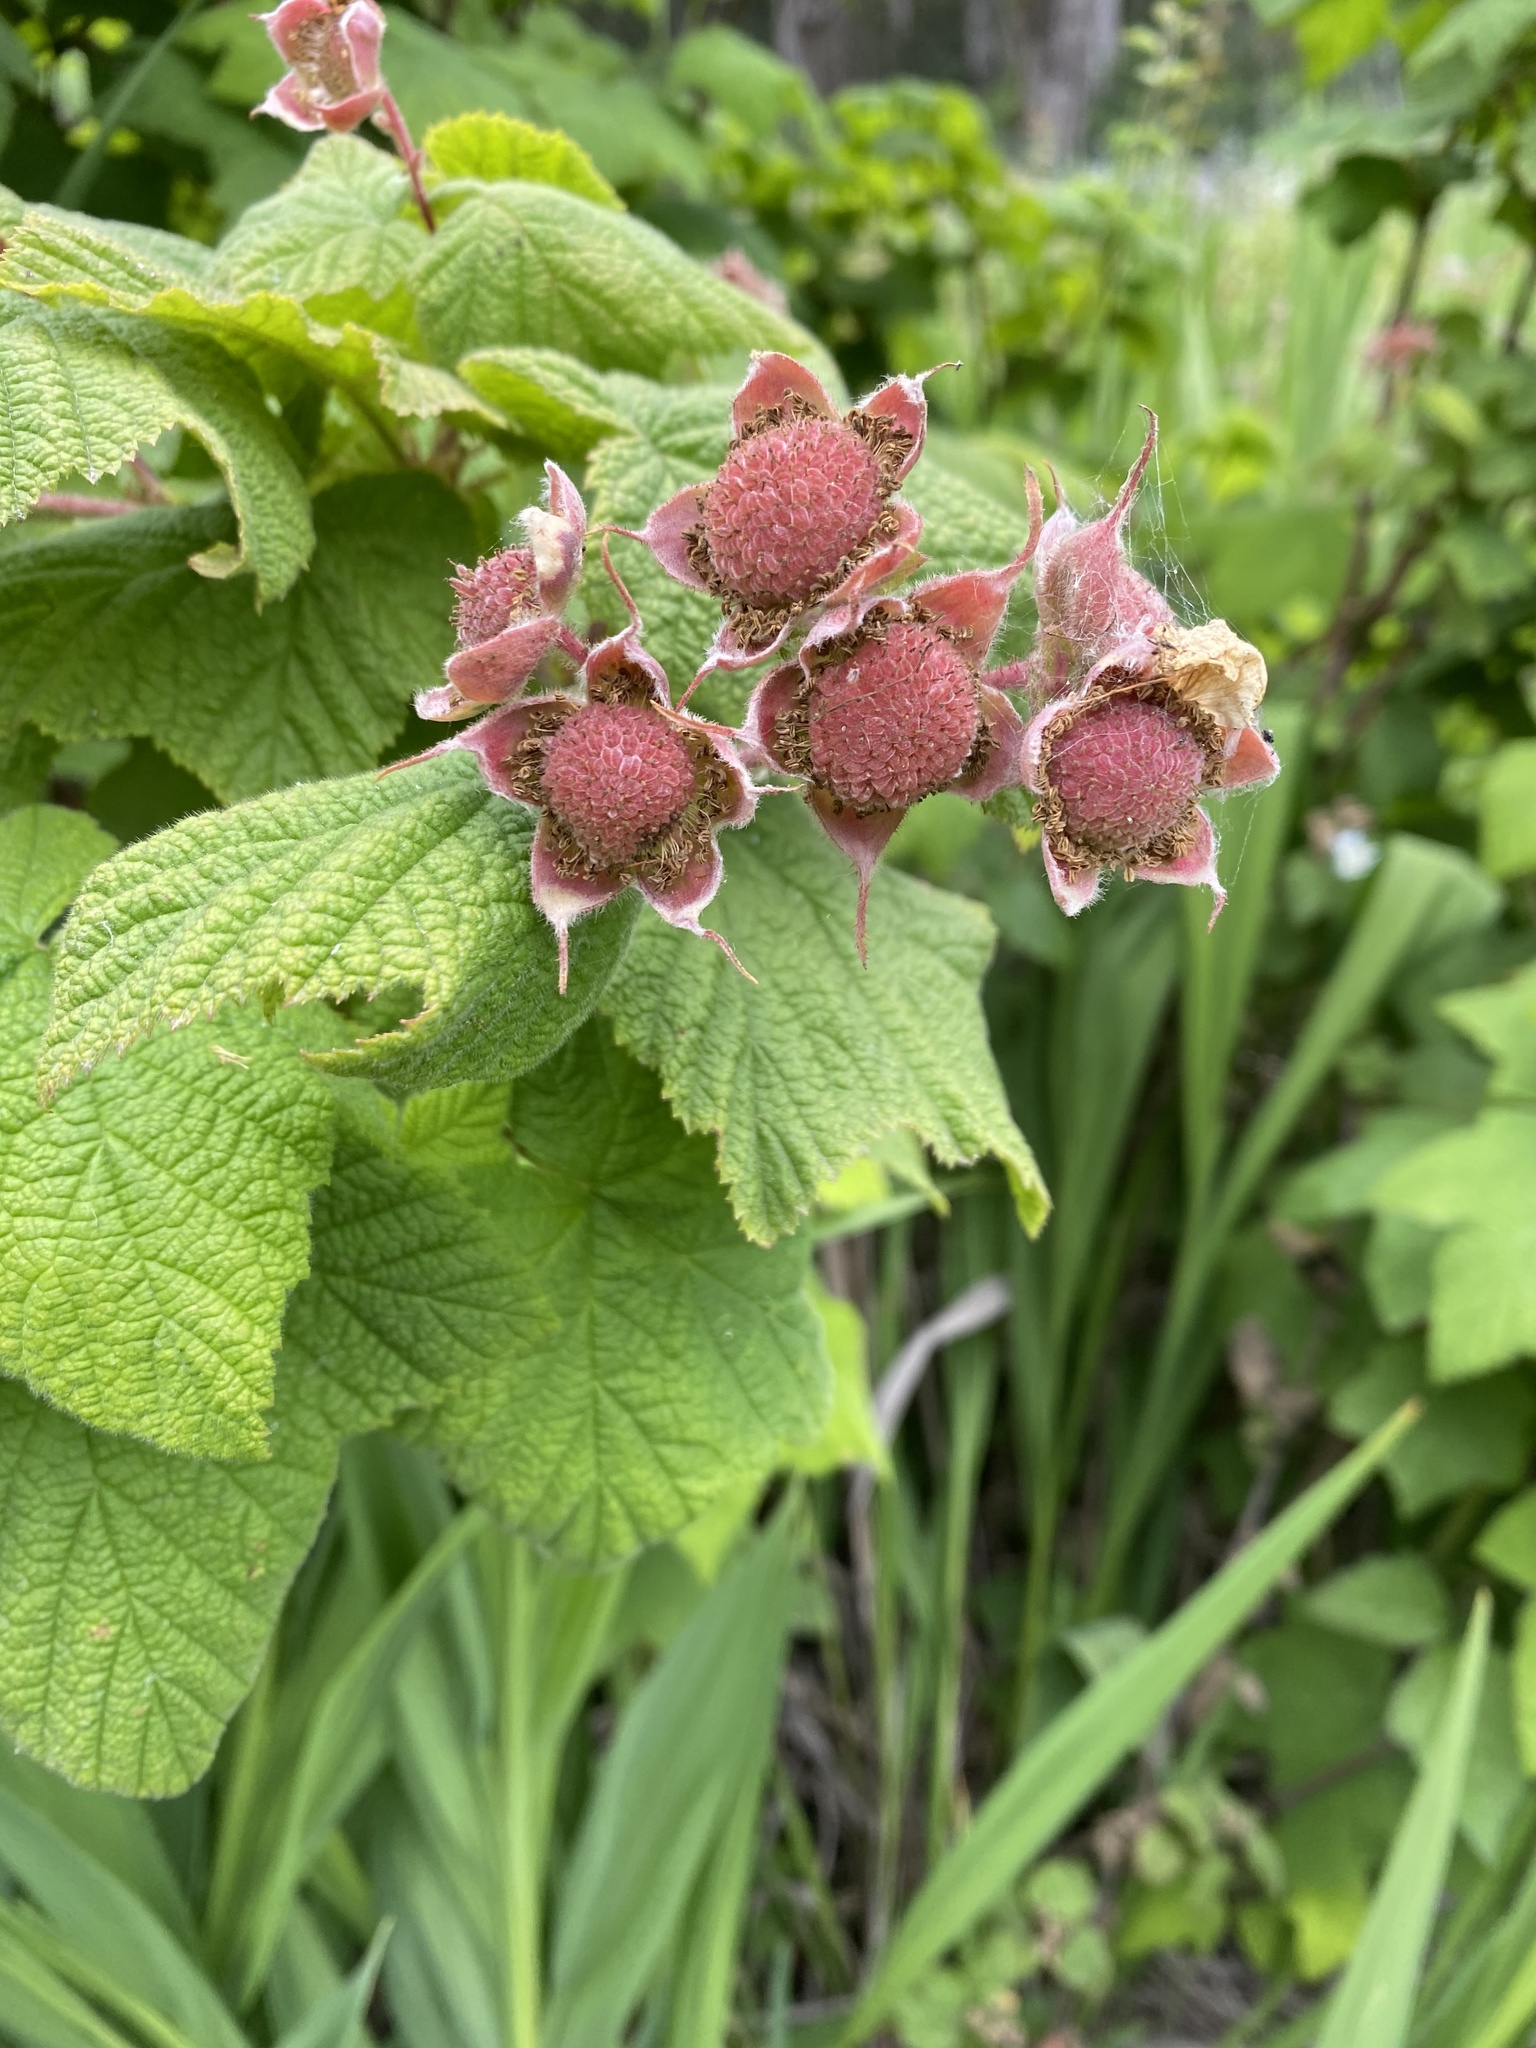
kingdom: Plantae
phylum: Tracheophyta
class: Magnoliopsida
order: Rosales
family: Rosaceae
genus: Rubus
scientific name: Rubus parviflorus
